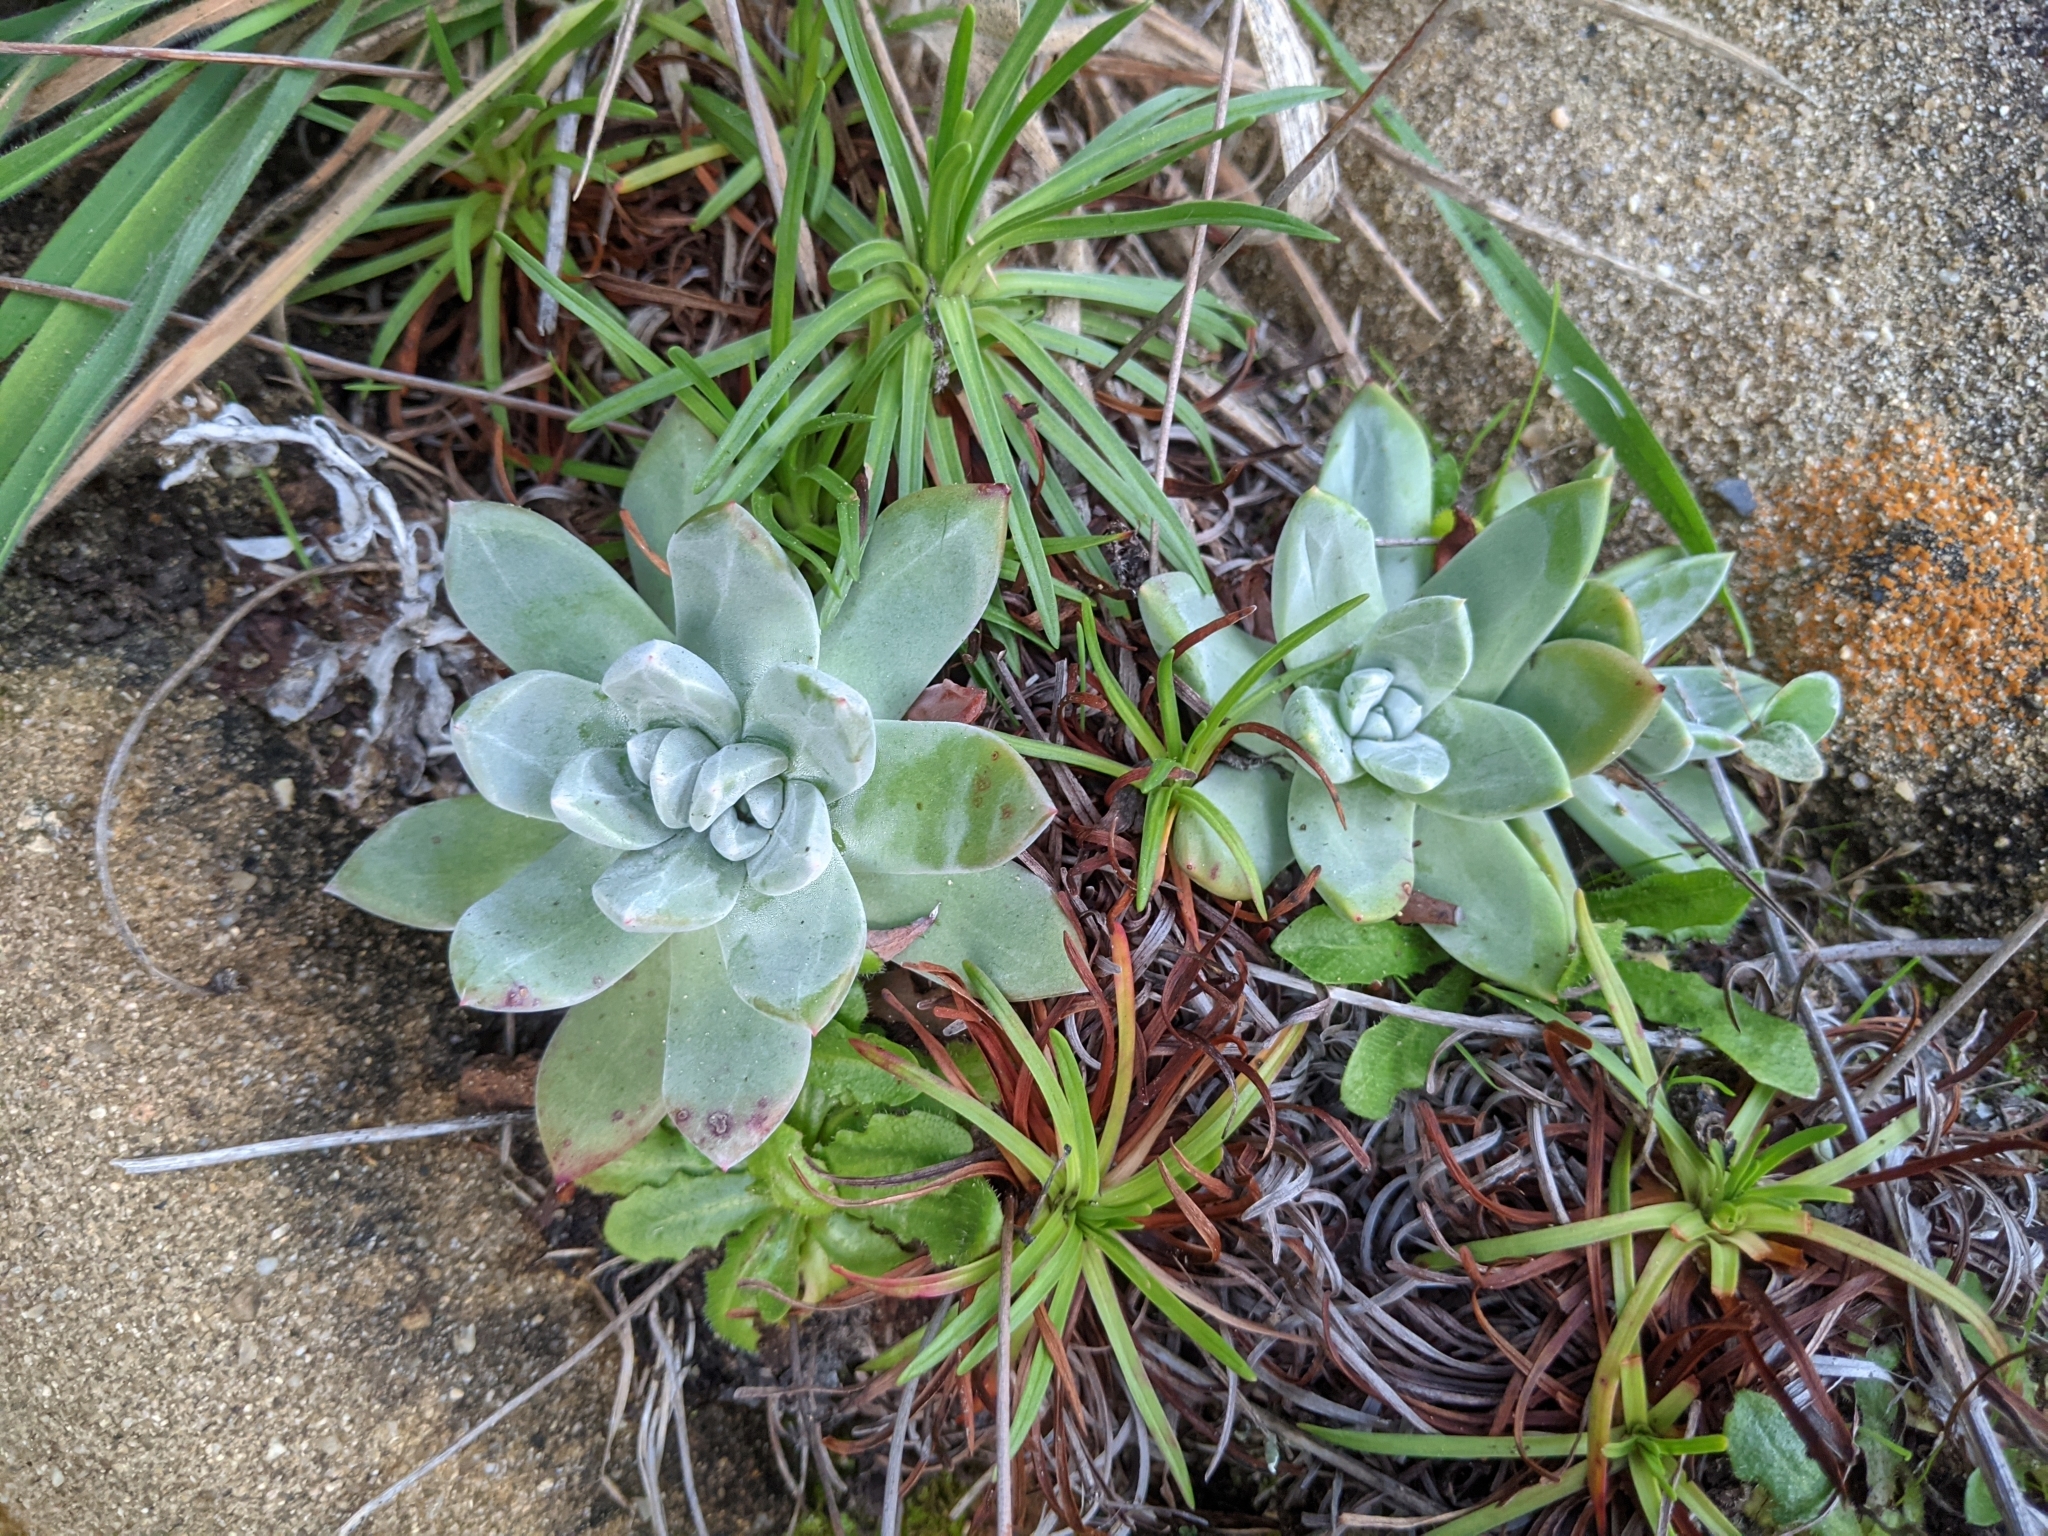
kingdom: Plantae
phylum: Tracheophyta
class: Magnoliopsida
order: Saxifragales
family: Crassulaceae
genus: Dudleya
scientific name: Dudleya farinosa
